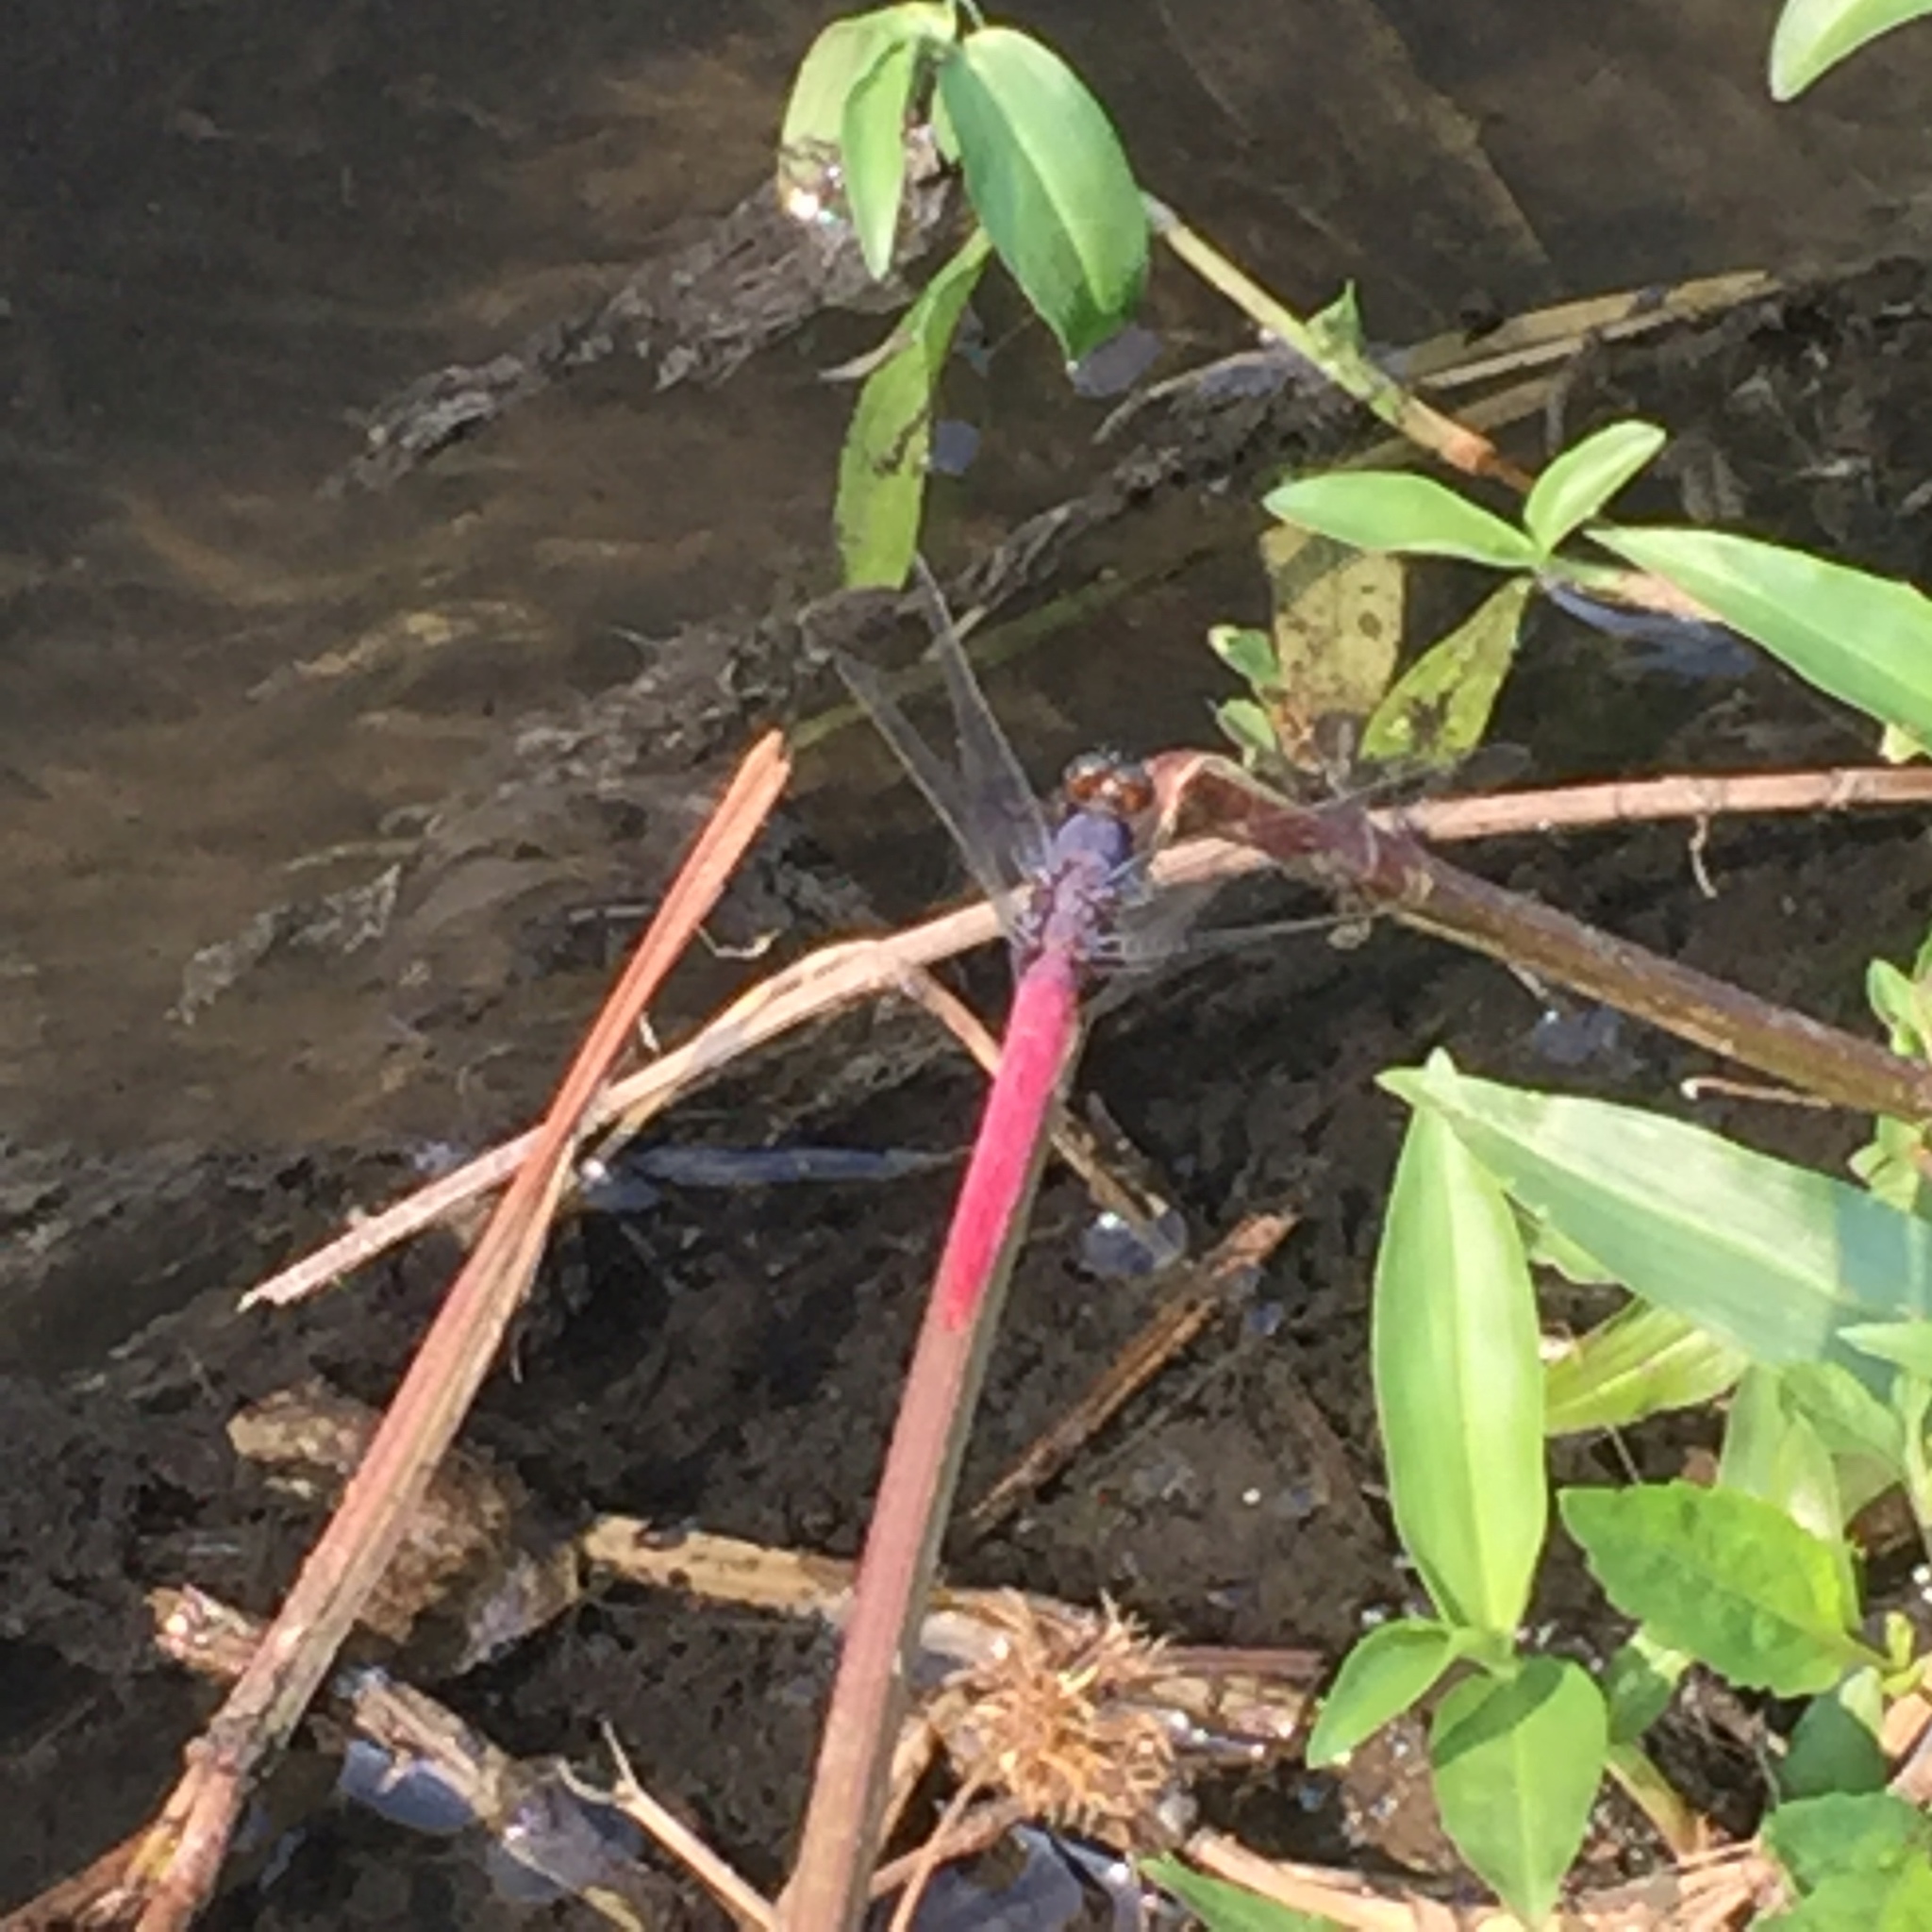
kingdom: Animalia
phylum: Arthropoda
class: Insecta
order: Odonata
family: Libellulidae
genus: Orthetrum
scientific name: Orthetrum pruinosum
